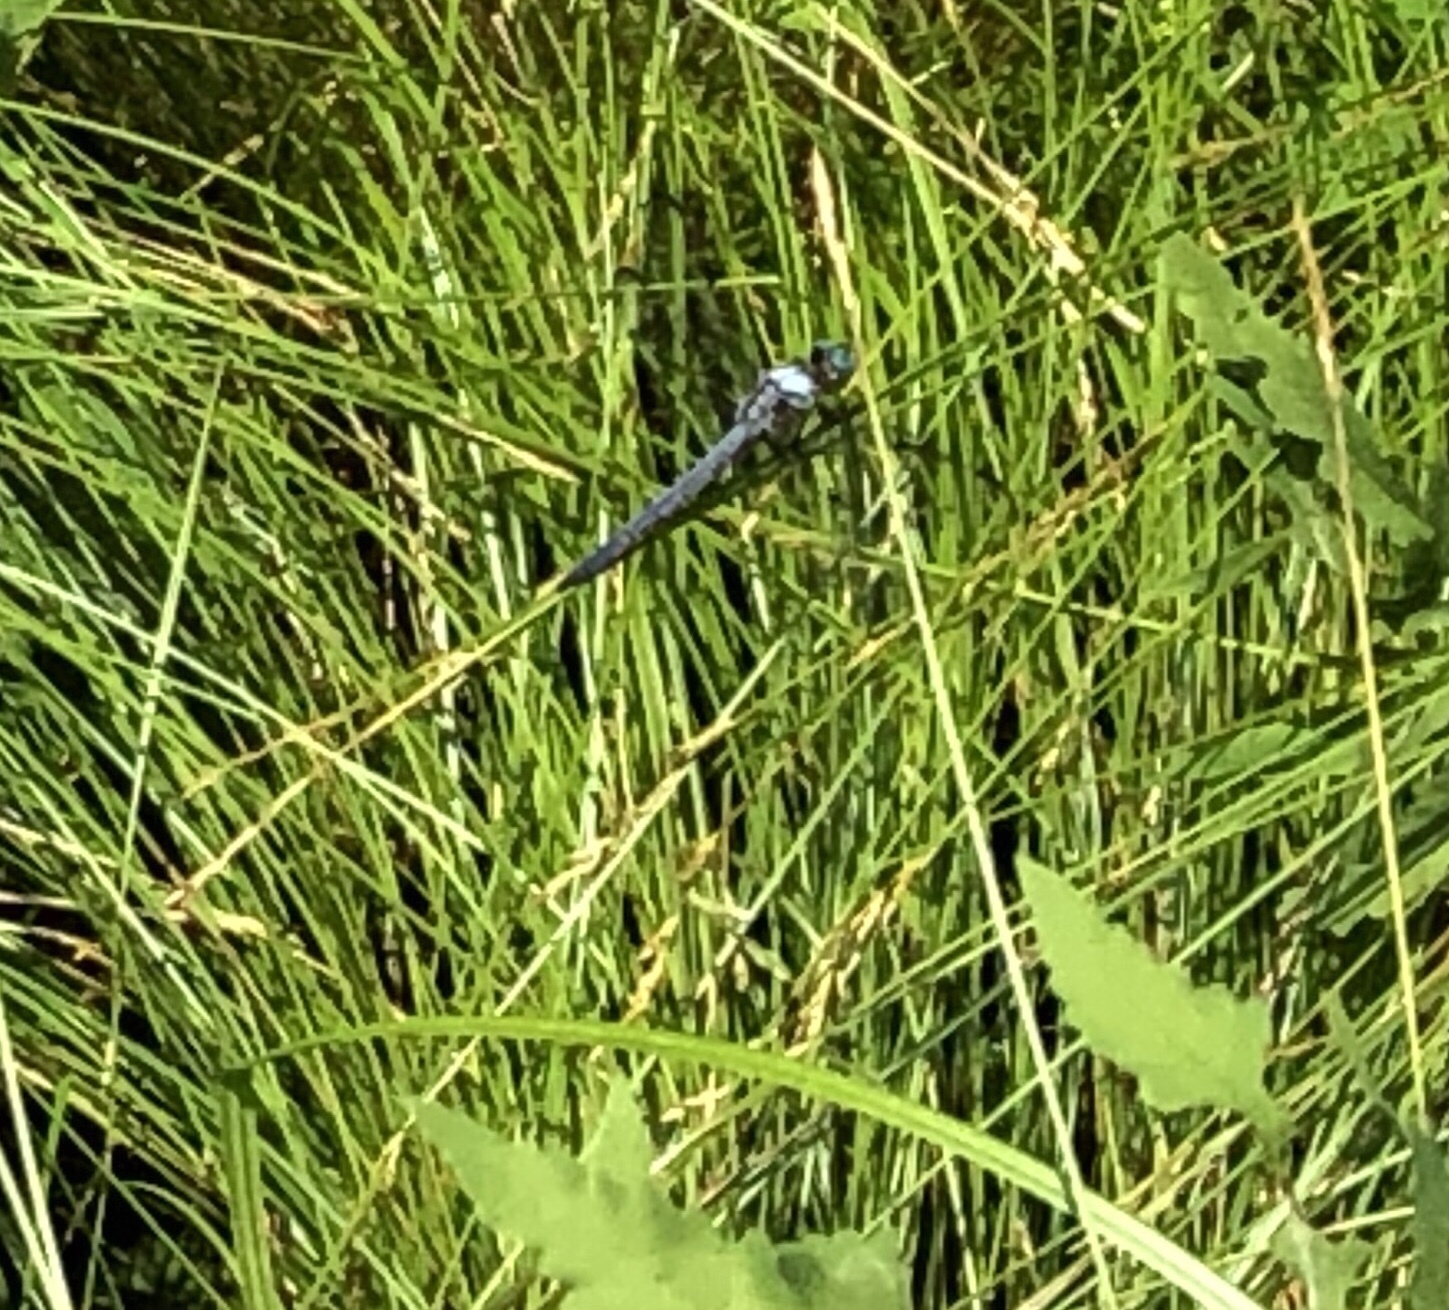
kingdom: Animalia
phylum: Arthropoda
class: Insecta
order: Odonata
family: Libellulidae
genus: Libellula
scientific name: Libellula vibrans
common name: Great blue skimmer
